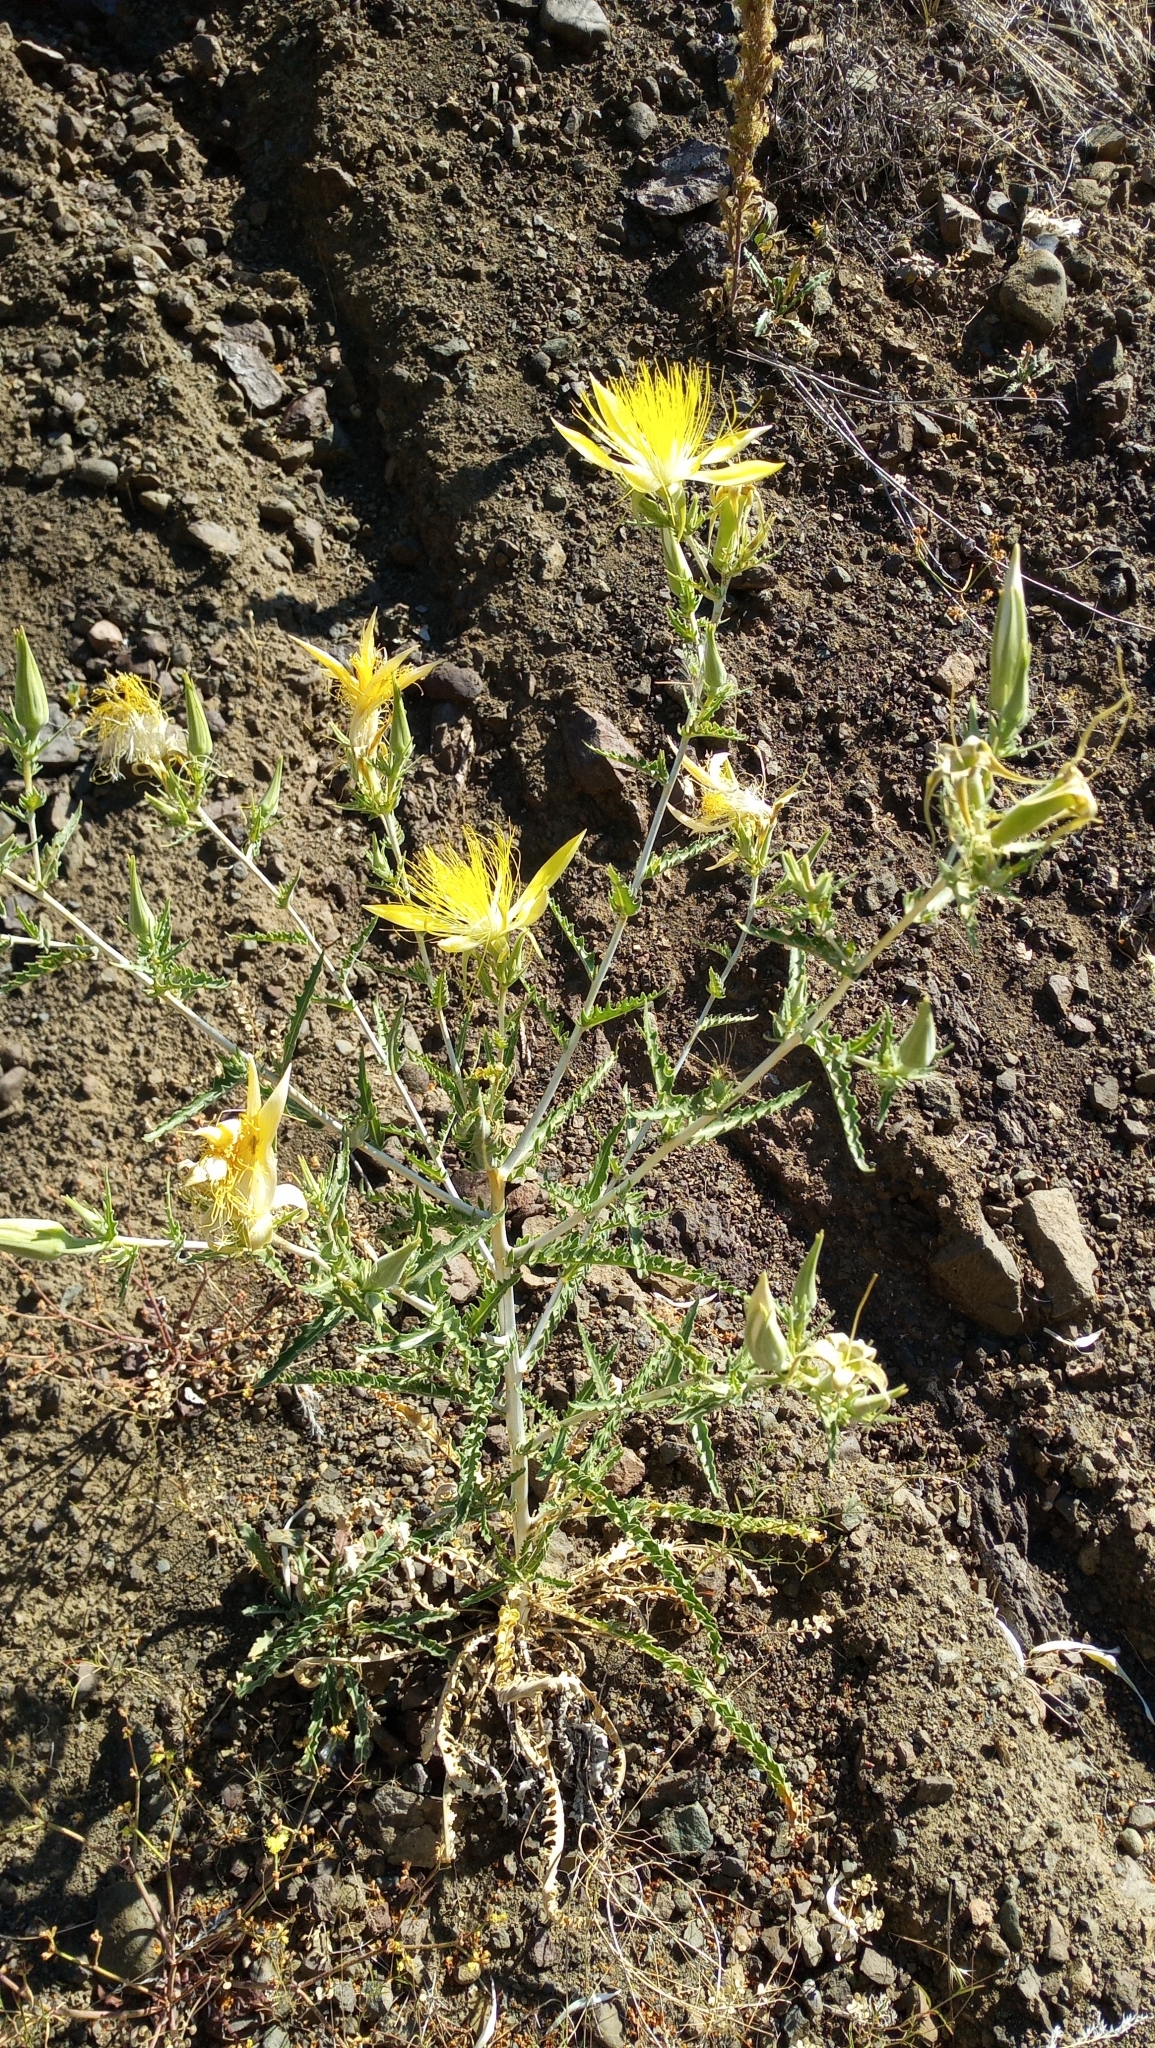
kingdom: Plantae
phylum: Tracheophyta
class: Magnoliopsida
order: Cornales
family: Loasaceae
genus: Mentzelia
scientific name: Mentzelia laevicaulis
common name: Smooth-stem blazingstar
